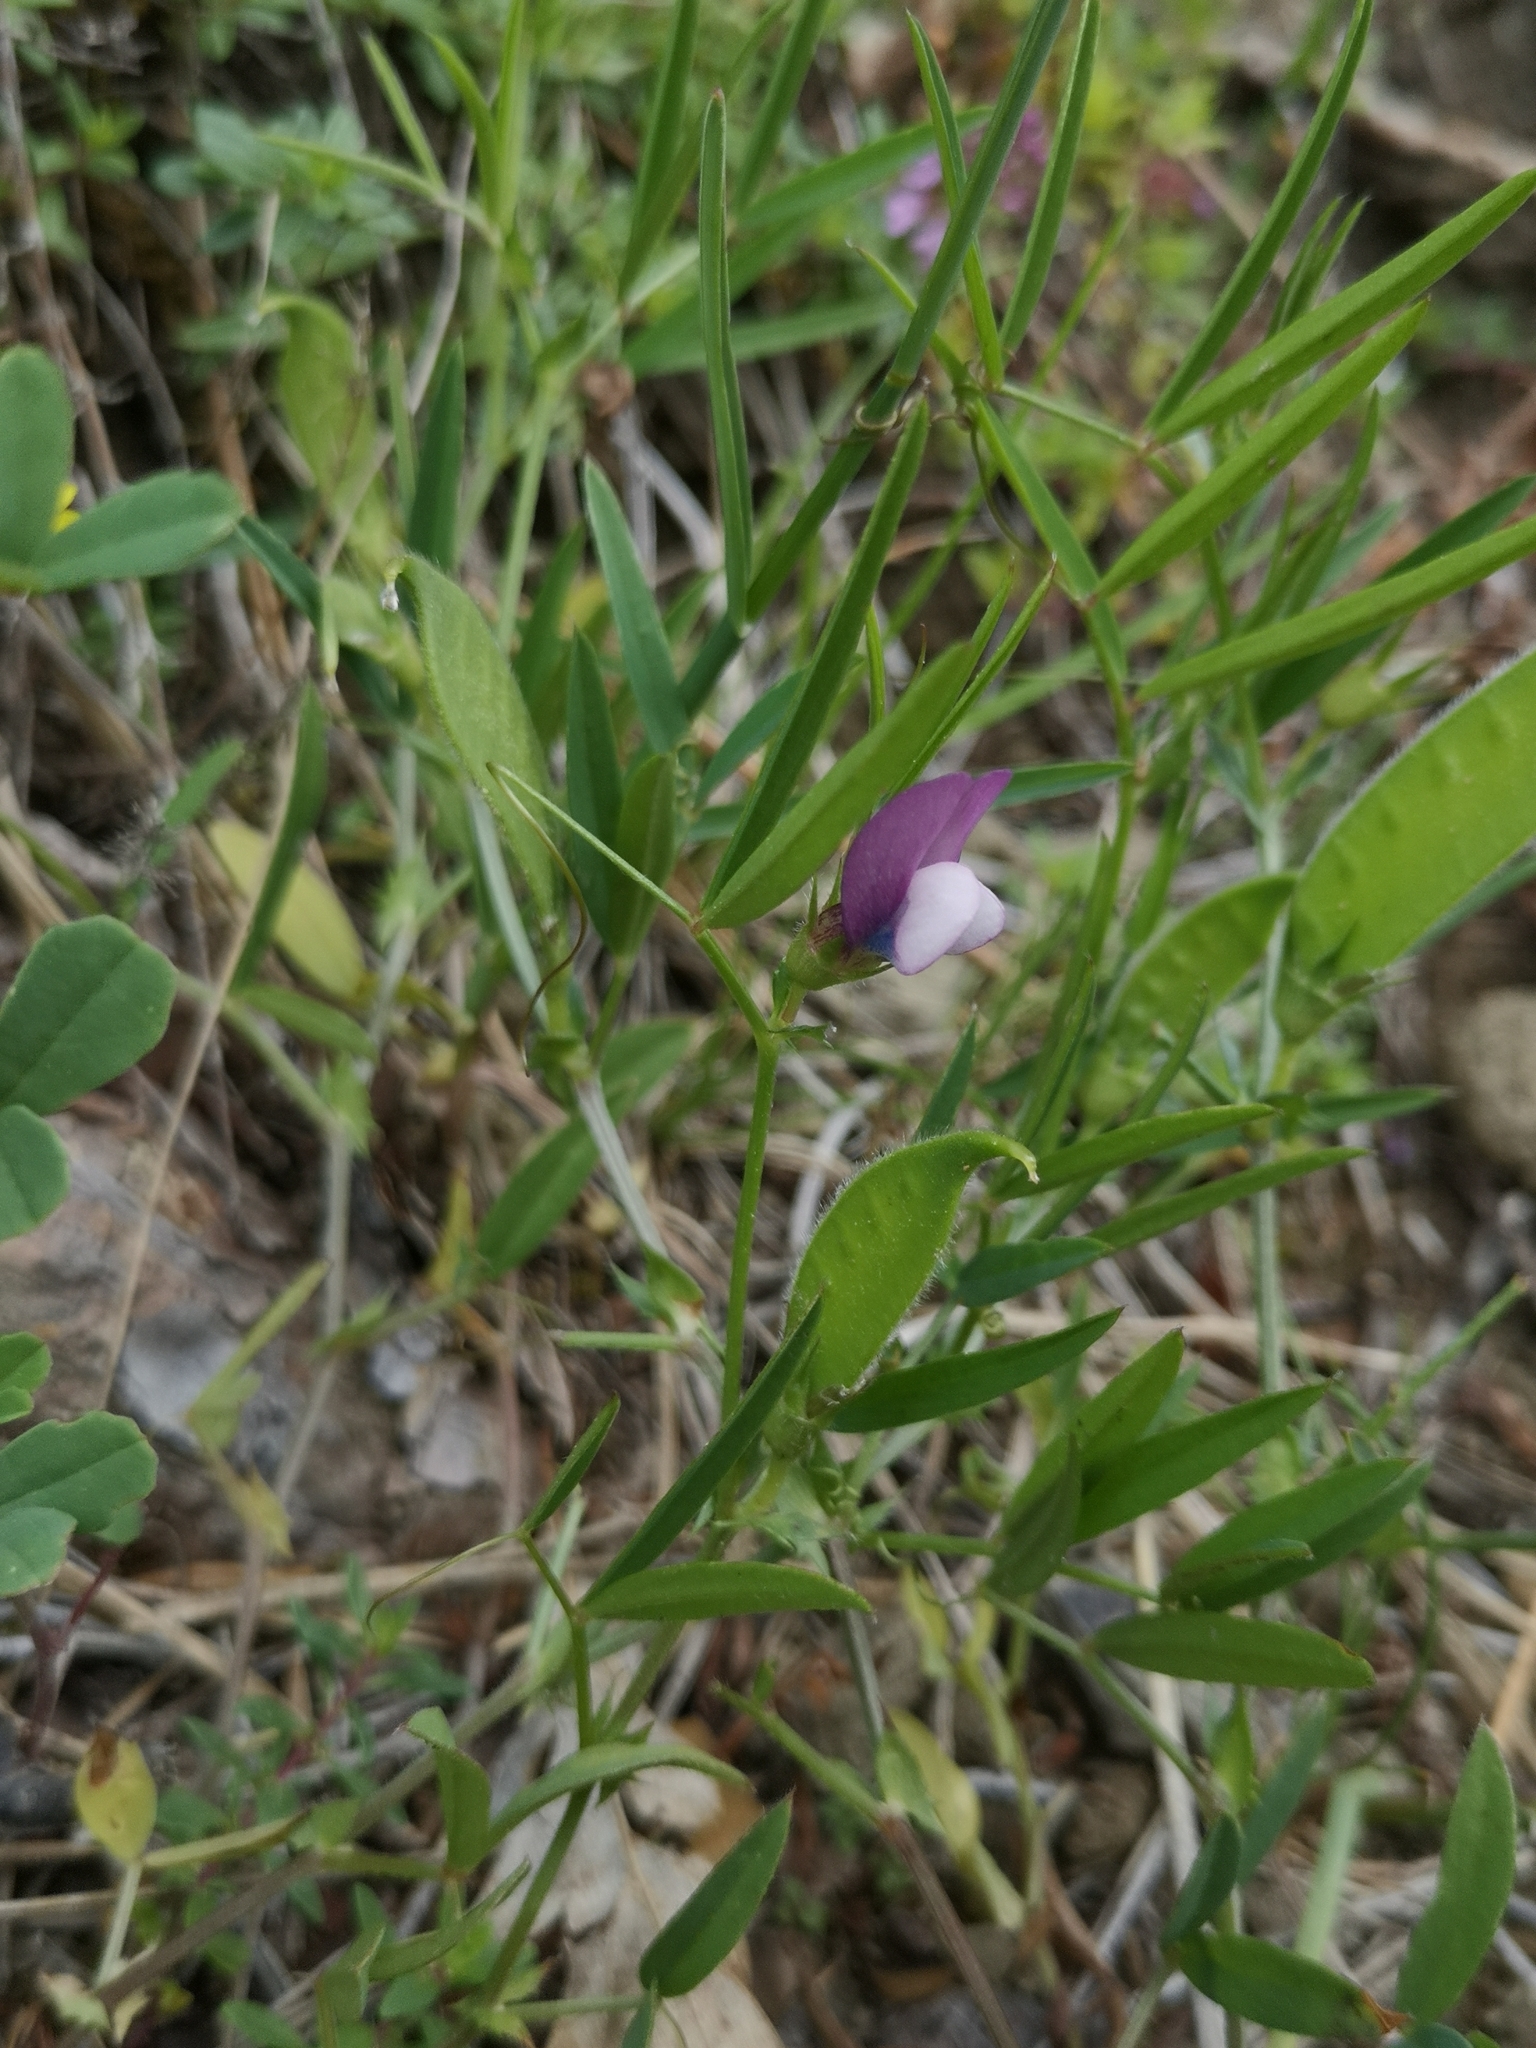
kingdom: Plantae
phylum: Tracheophyta
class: Magnoliopsida
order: Fabales
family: Fabaceae
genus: Vicia
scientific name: Vicia bithynica
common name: Bithynian vetch
